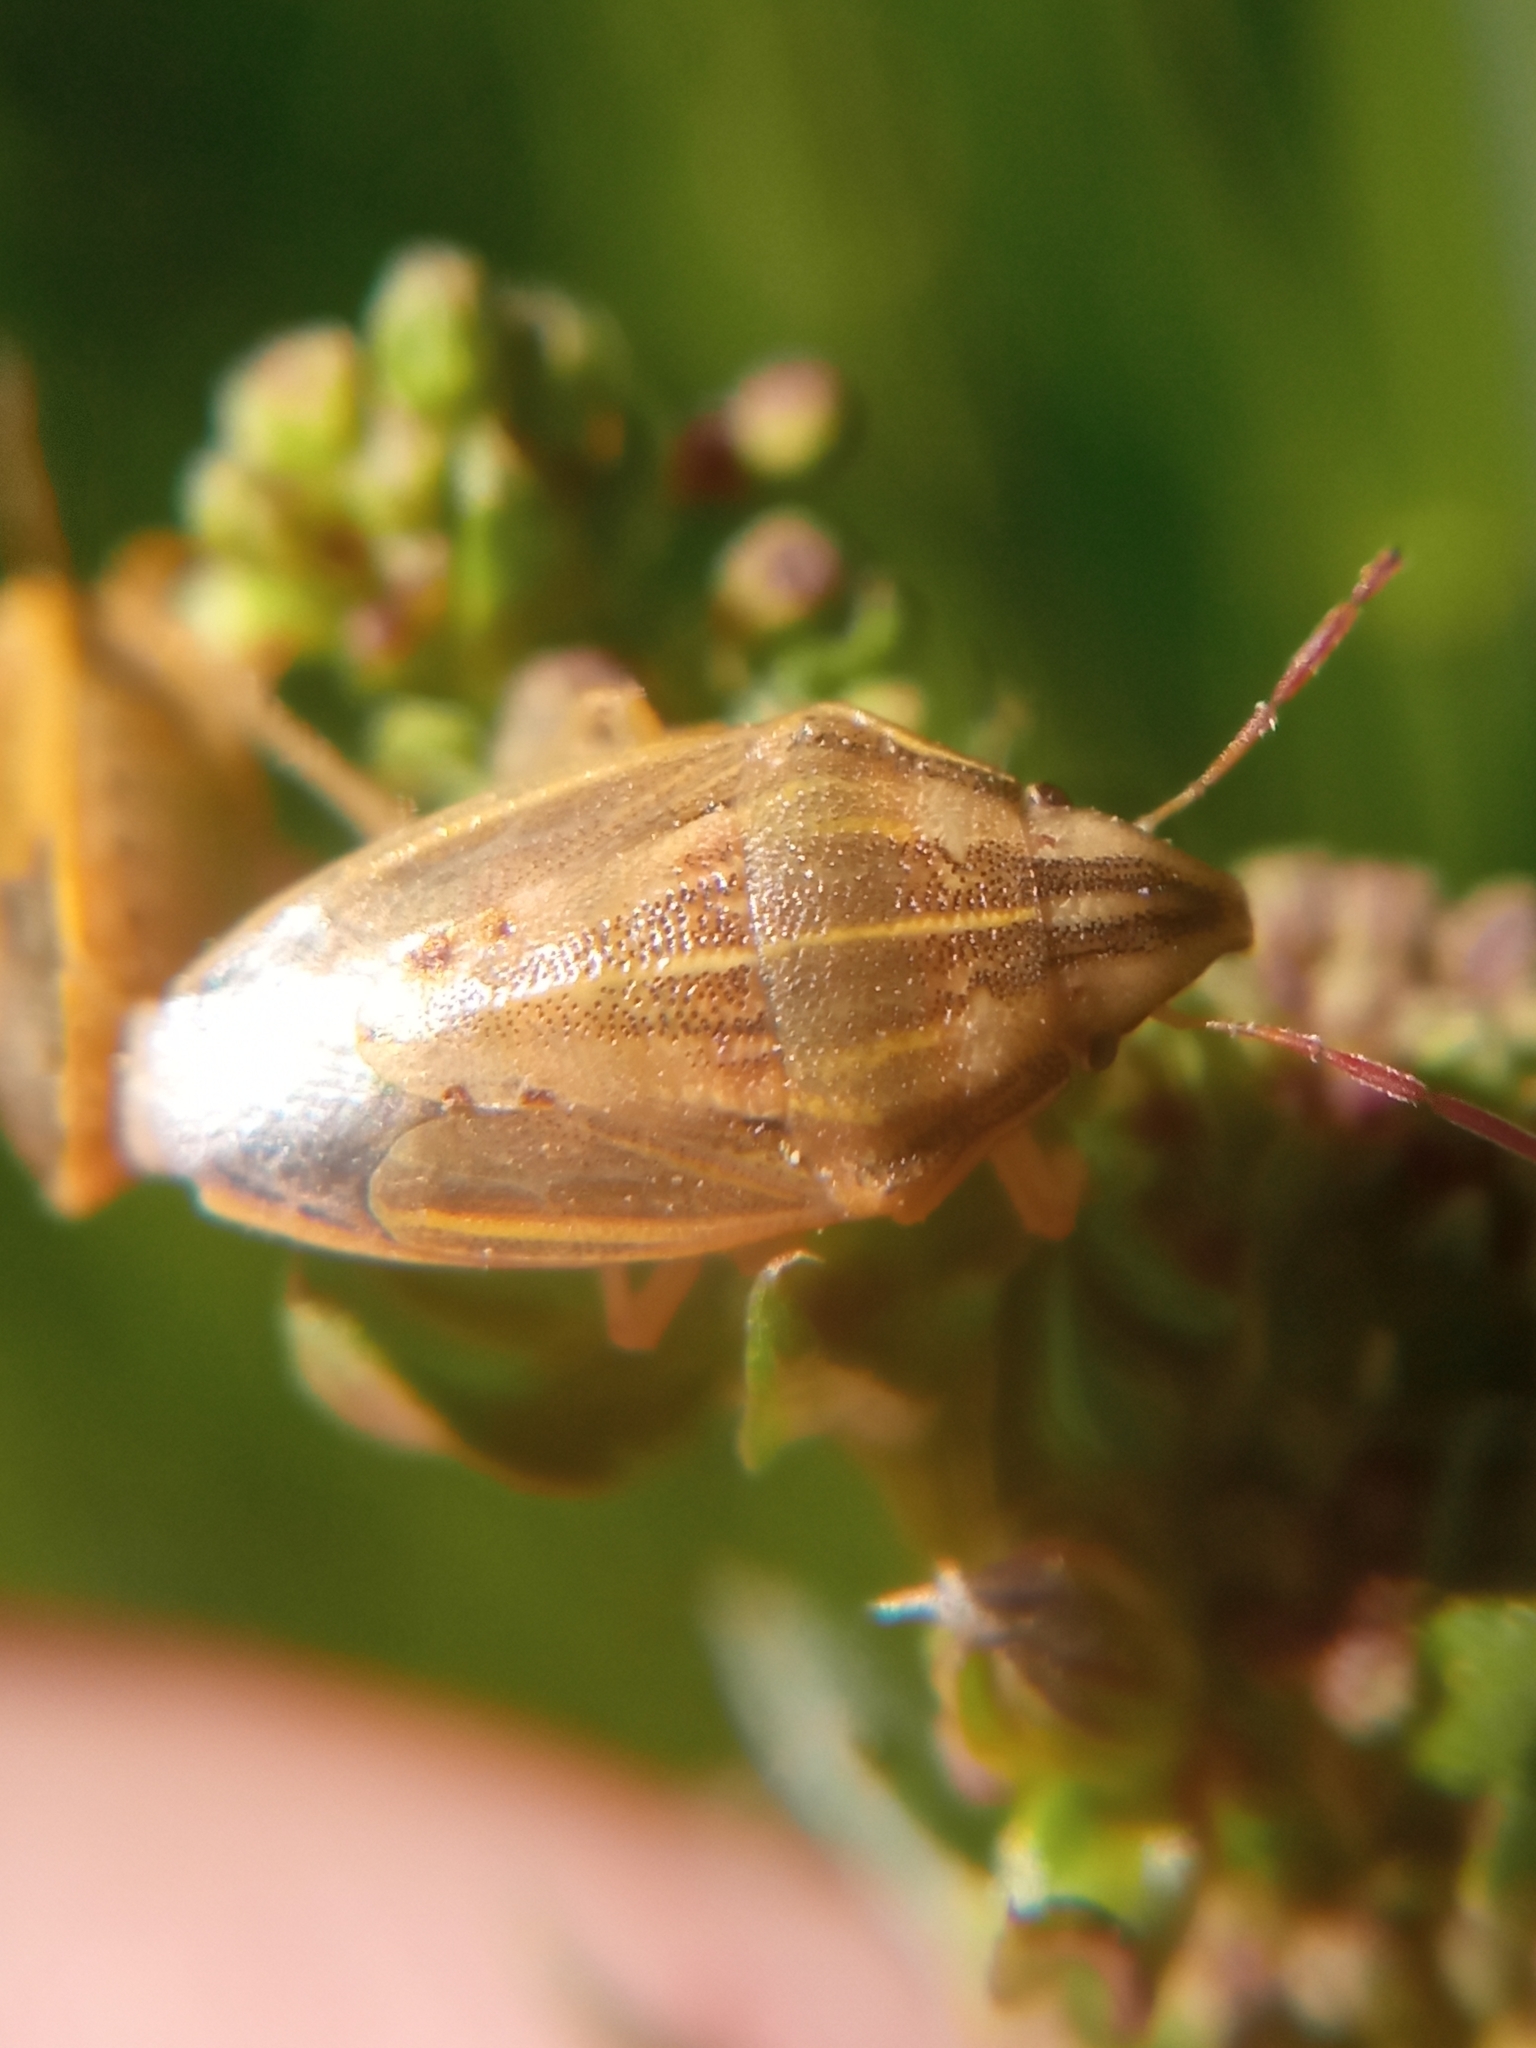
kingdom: Animalia
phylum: Arthropoda
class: Insecta
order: Hemiptera
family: Pentatomidae
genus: Aelia
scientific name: Aelia acuminata
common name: Bishop's mitre
